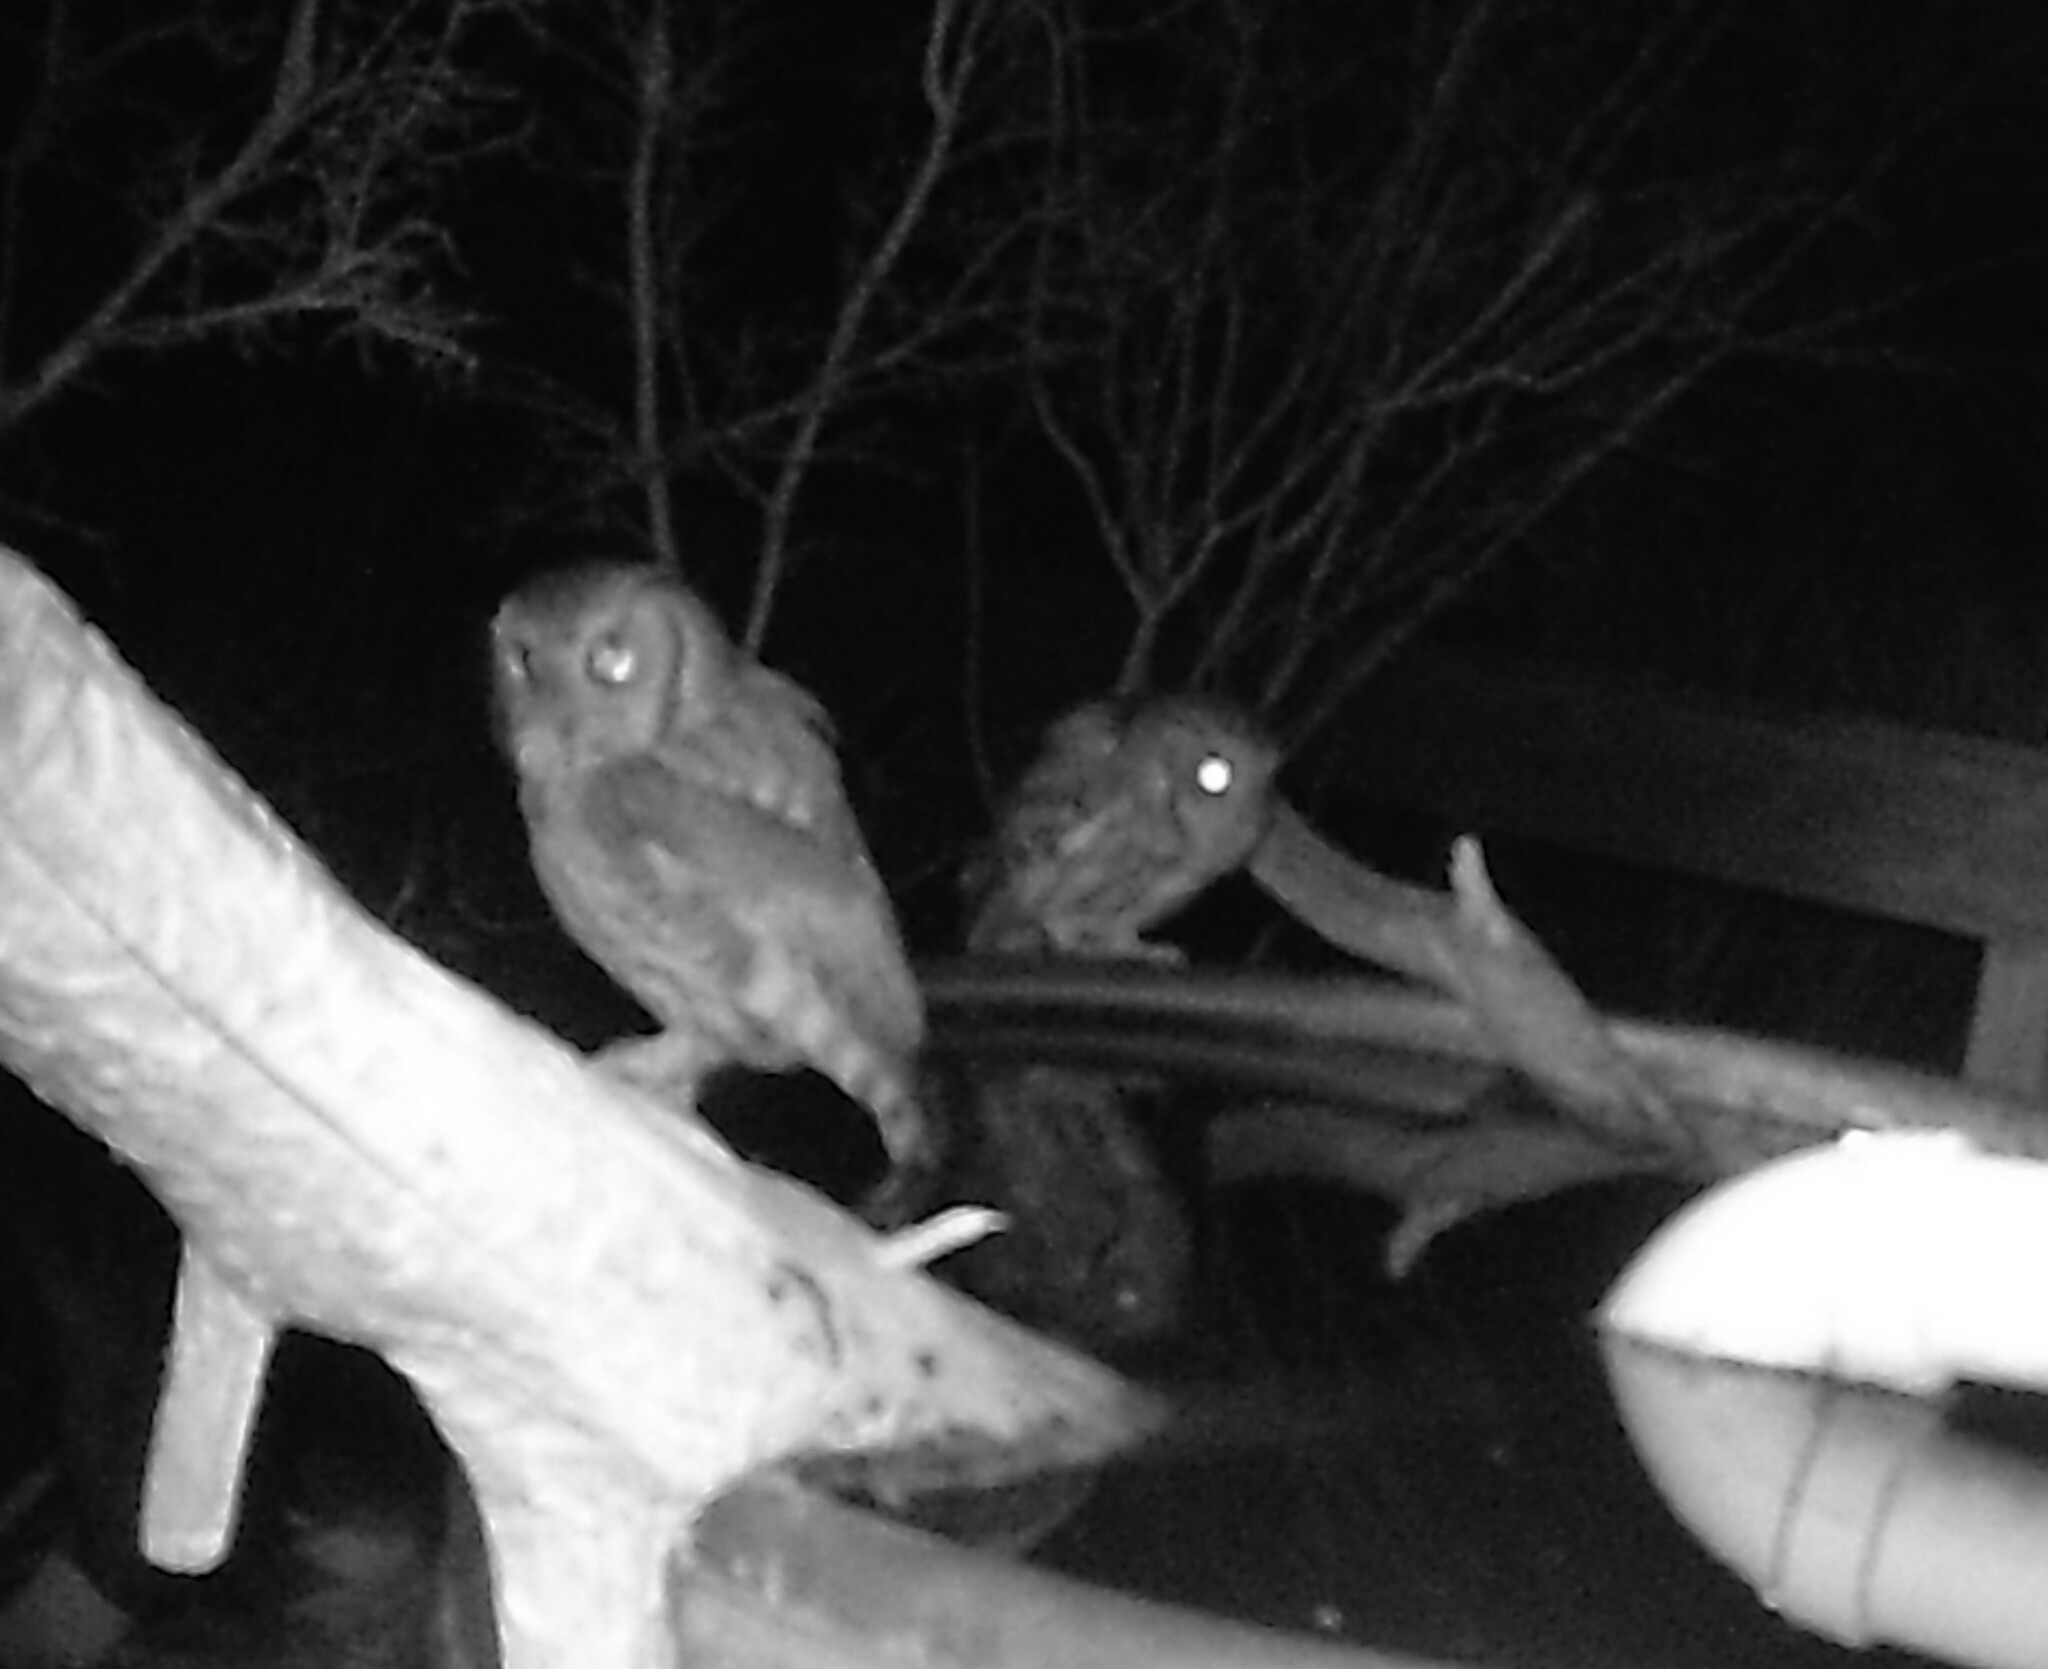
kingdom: Animalia
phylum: Chordata
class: Aves
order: Strigiformes
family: Strigidae
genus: Megascops
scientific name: Megascops asio
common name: Eastern screech-owl
